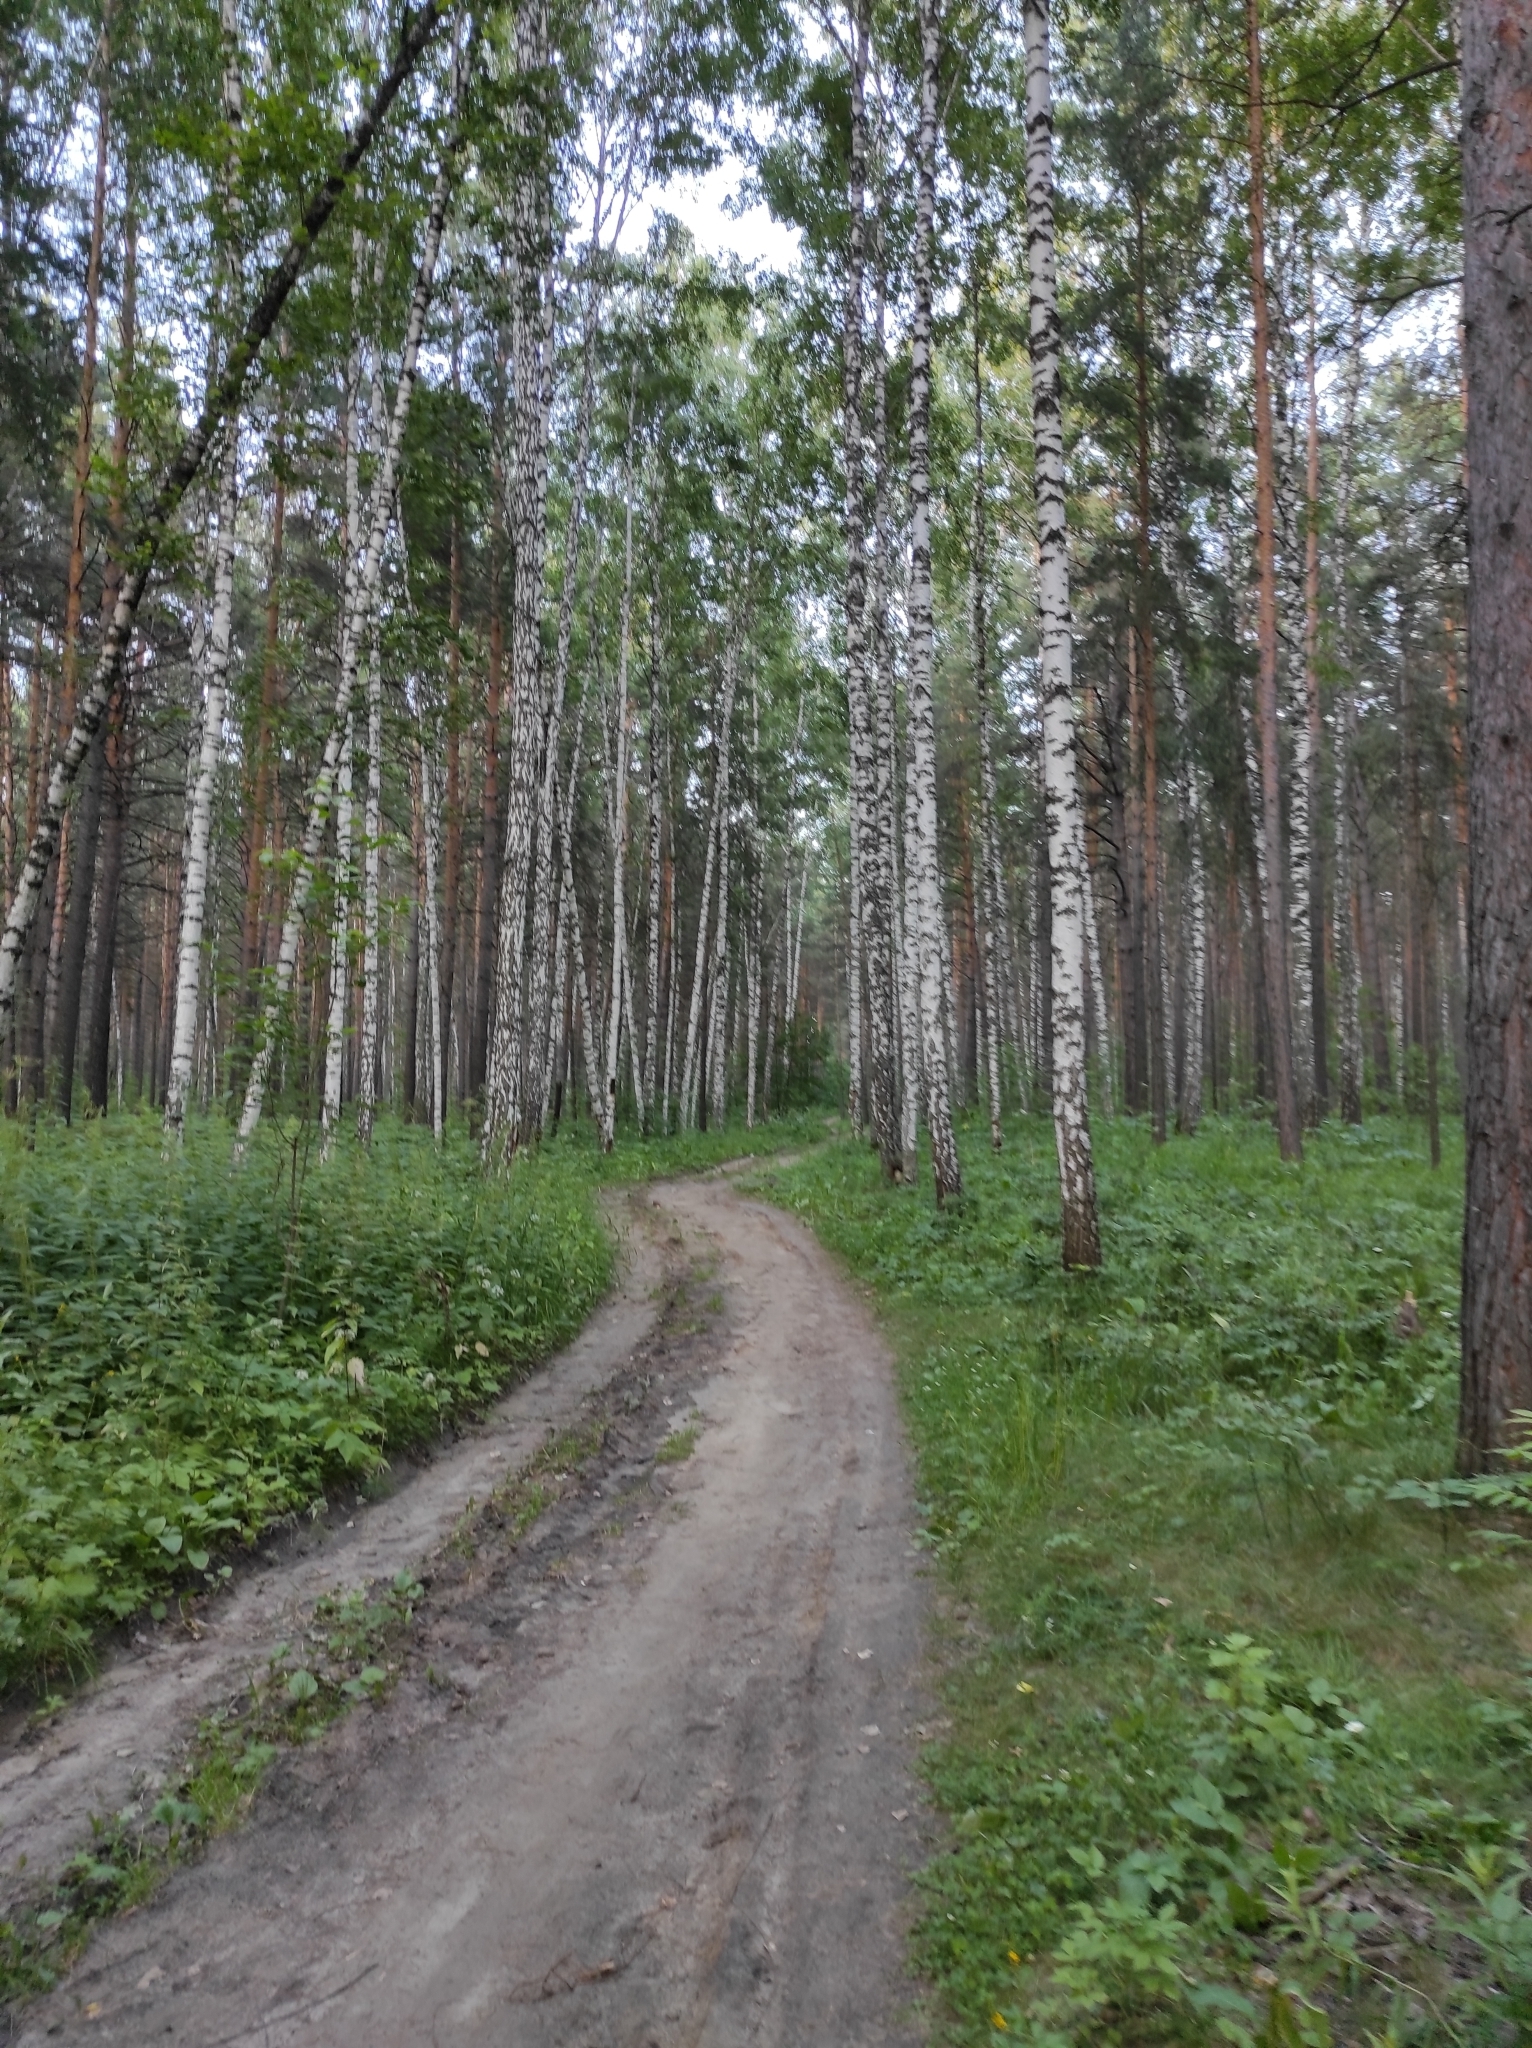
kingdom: Plantae
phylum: Tracheophyta
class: Magnoliopsida
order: Fagales
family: Betulaceae
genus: Betula
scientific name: Betula pendula
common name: Silver birch
